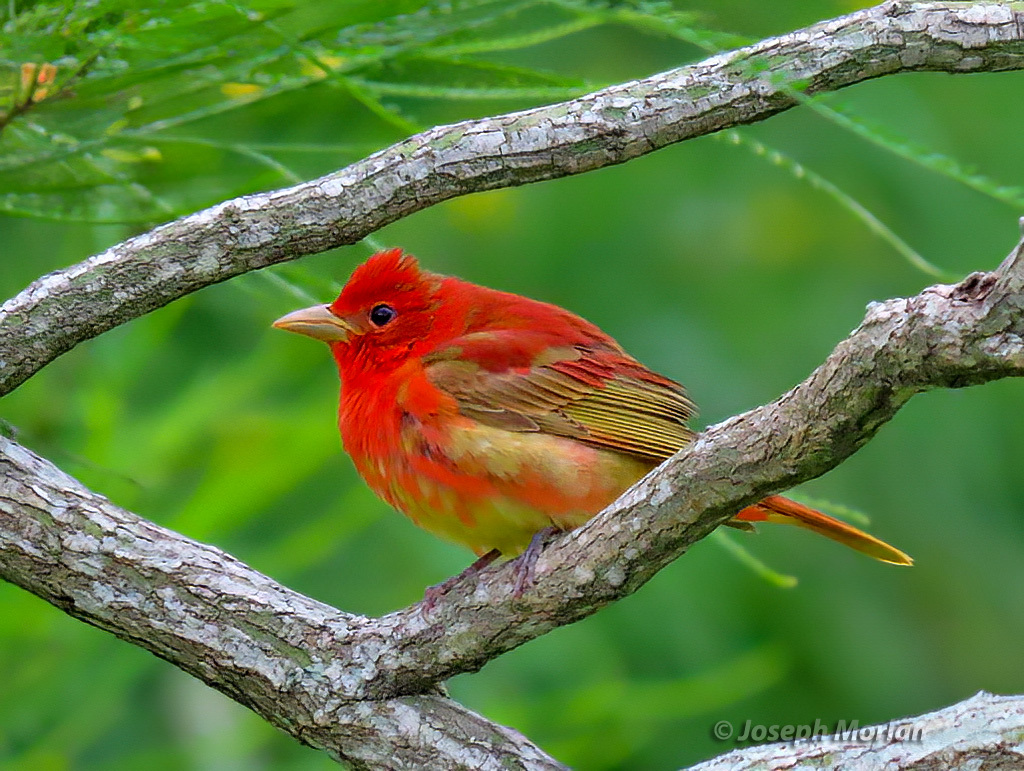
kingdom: Animalia
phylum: Chordata
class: Aves
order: Passeriformes
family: Cardinalidae
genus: Piranga
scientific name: Piranga rubra
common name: Summer tanager
